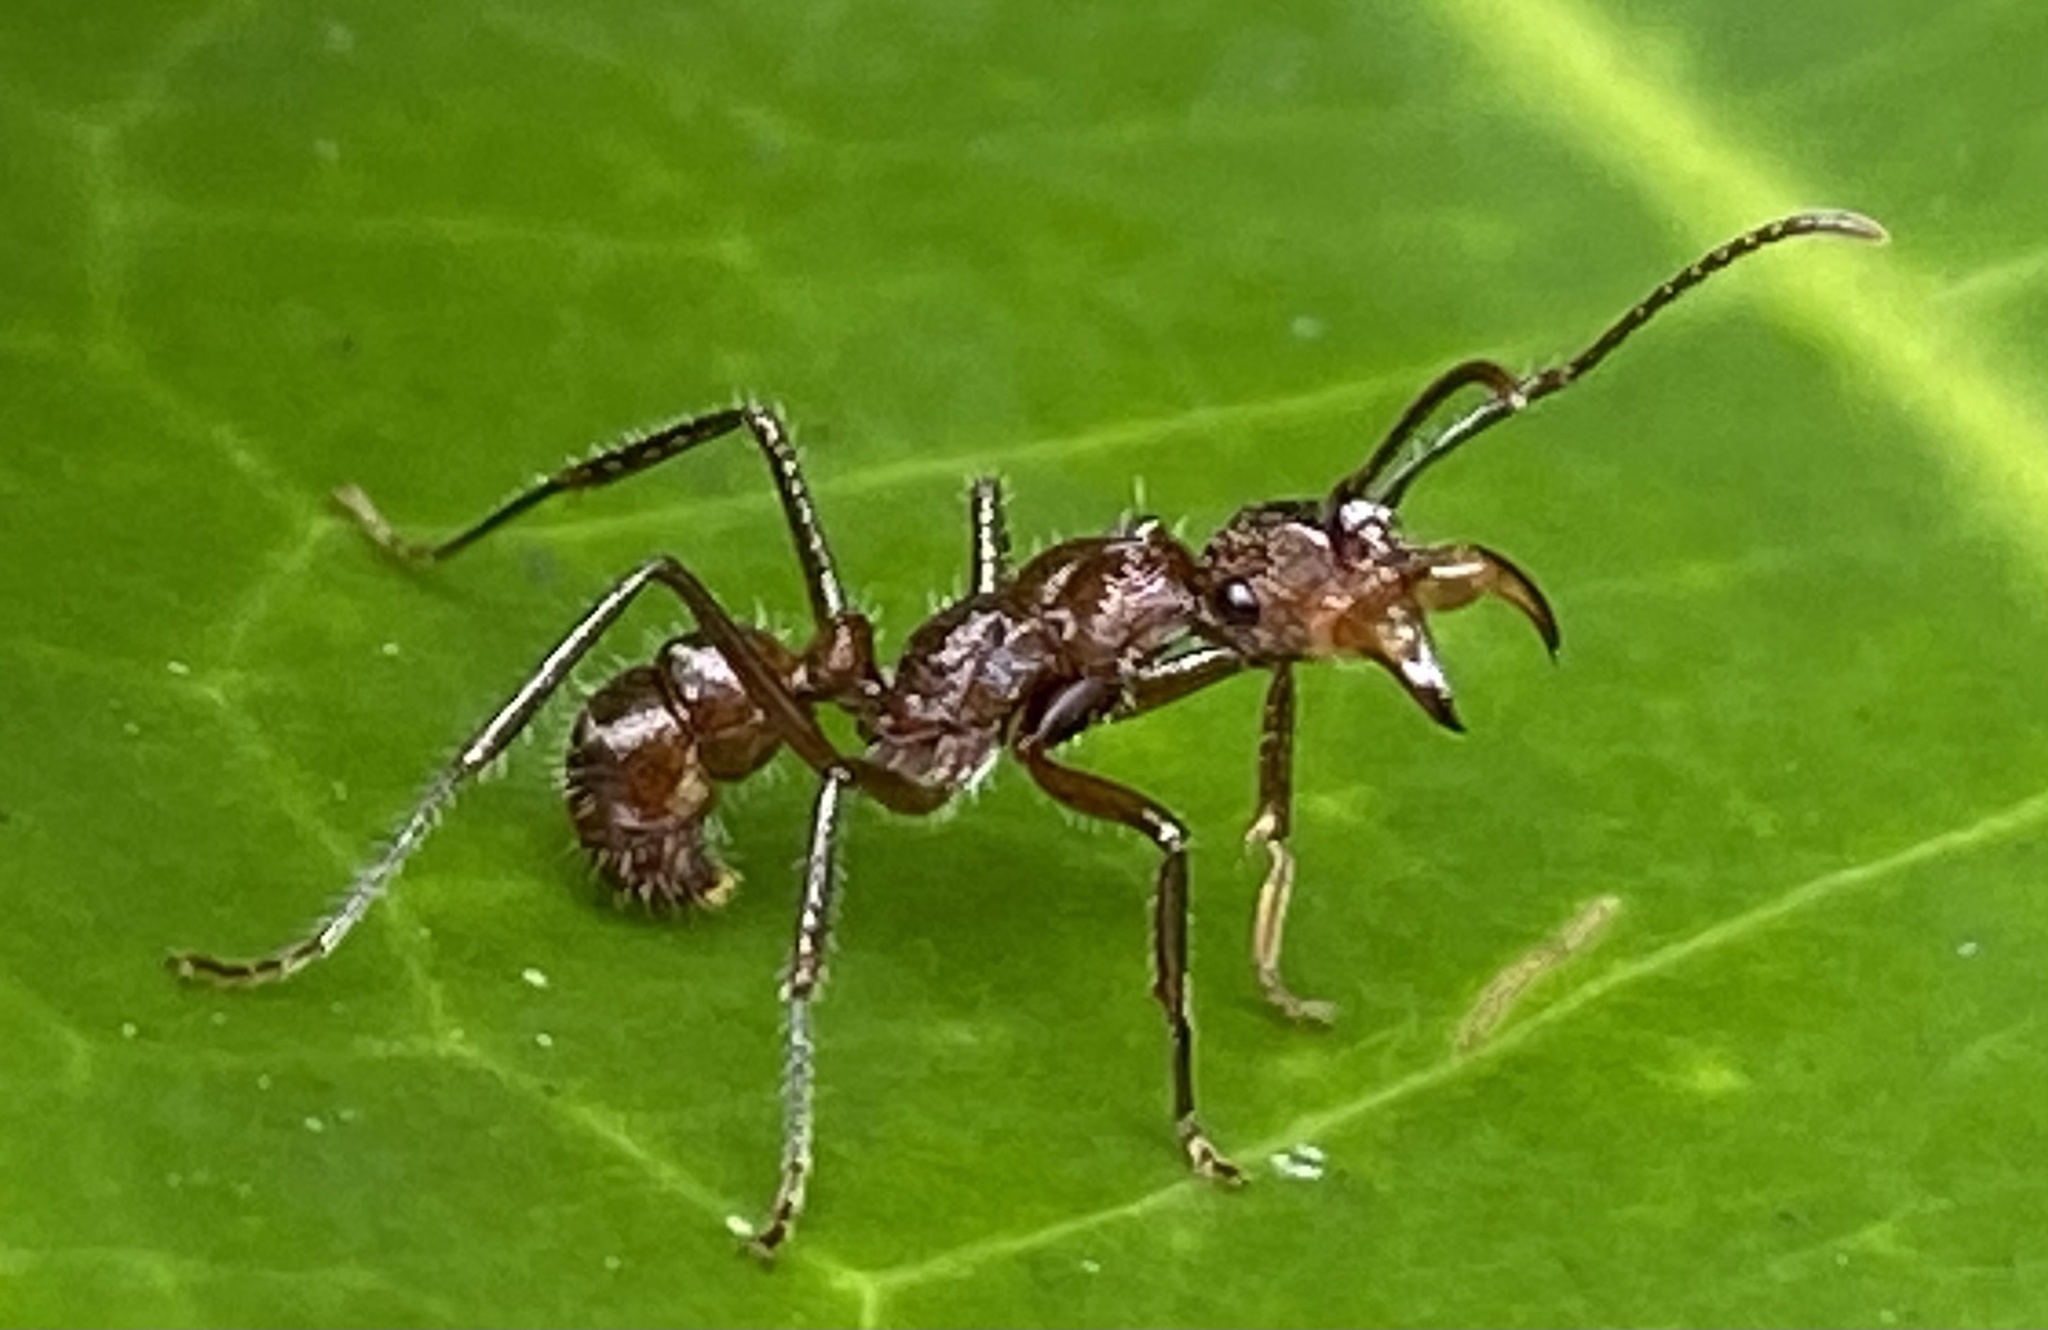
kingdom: Animalia
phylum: Arthropoda
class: Insecta
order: Hymenoptera
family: Formicidae
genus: Ectatomma
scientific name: Ectatomma tuberculatum
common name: Ant
